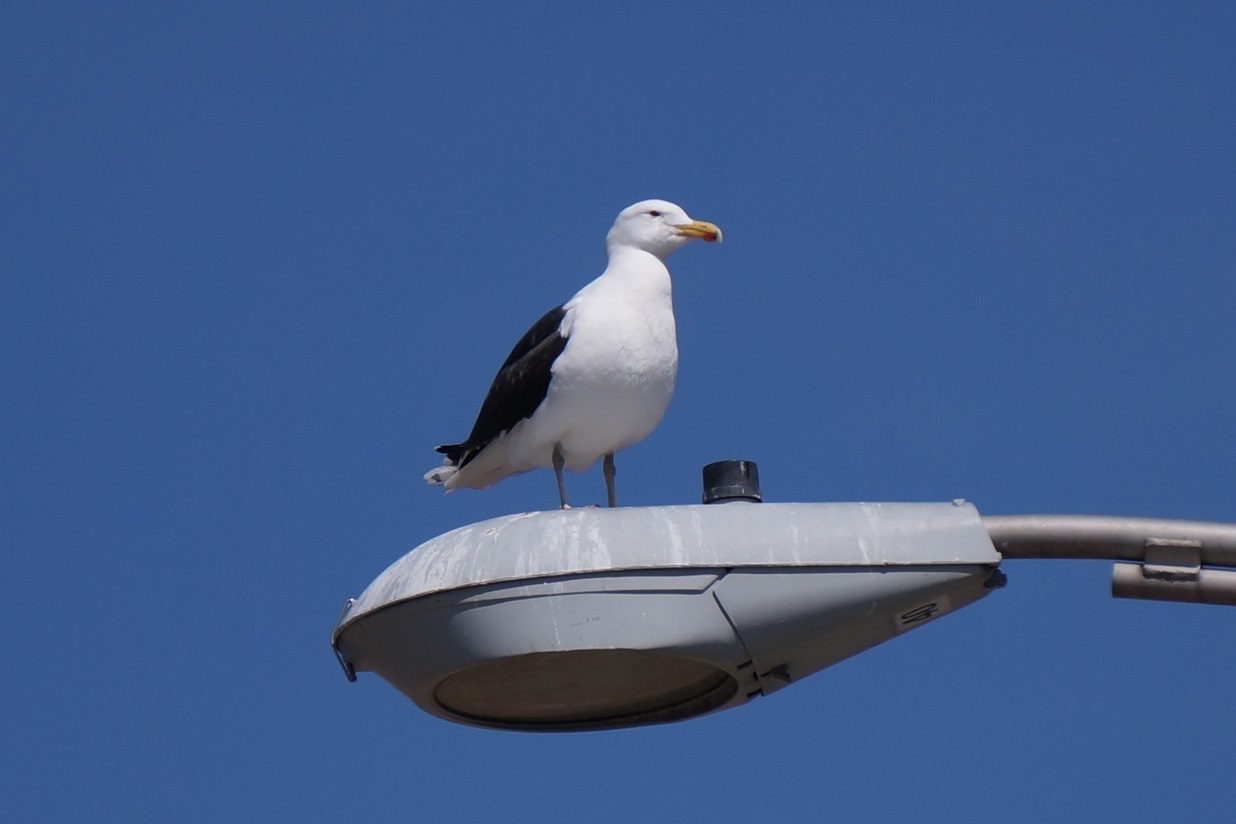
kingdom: Animalia
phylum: Chordata
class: Aves
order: Charadriiformes
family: Laridae
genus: Larus
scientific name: Larus marinus
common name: Great black-backed gull
